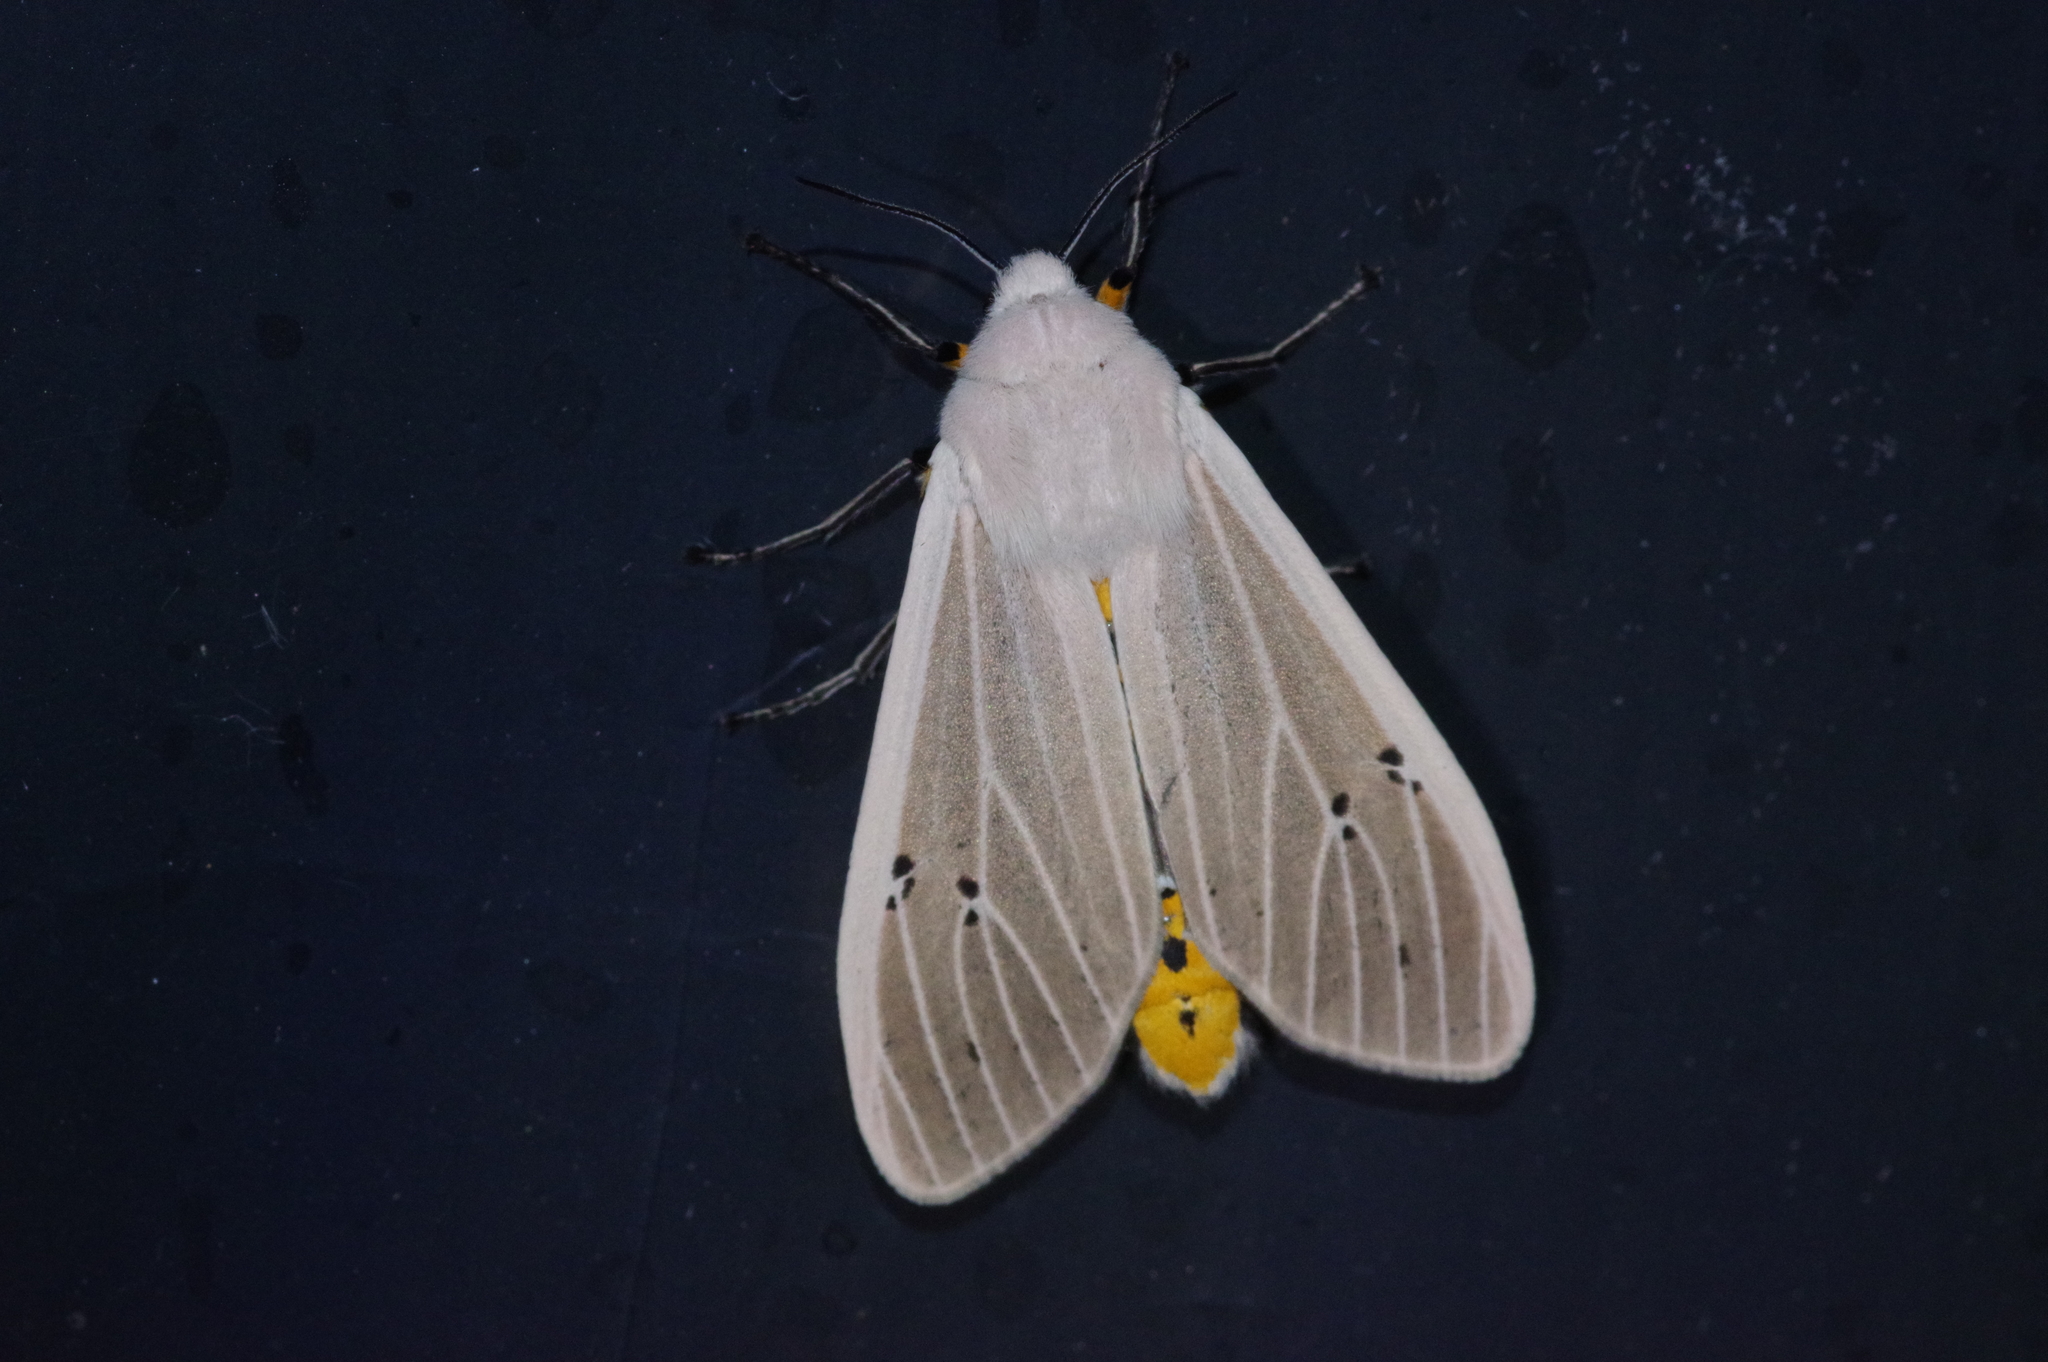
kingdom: Animalia
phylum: Arthropoda
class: Insecta
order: Lepidoptera
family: Erebidae
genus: Creatonotos
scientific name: Creatonotos transiens
